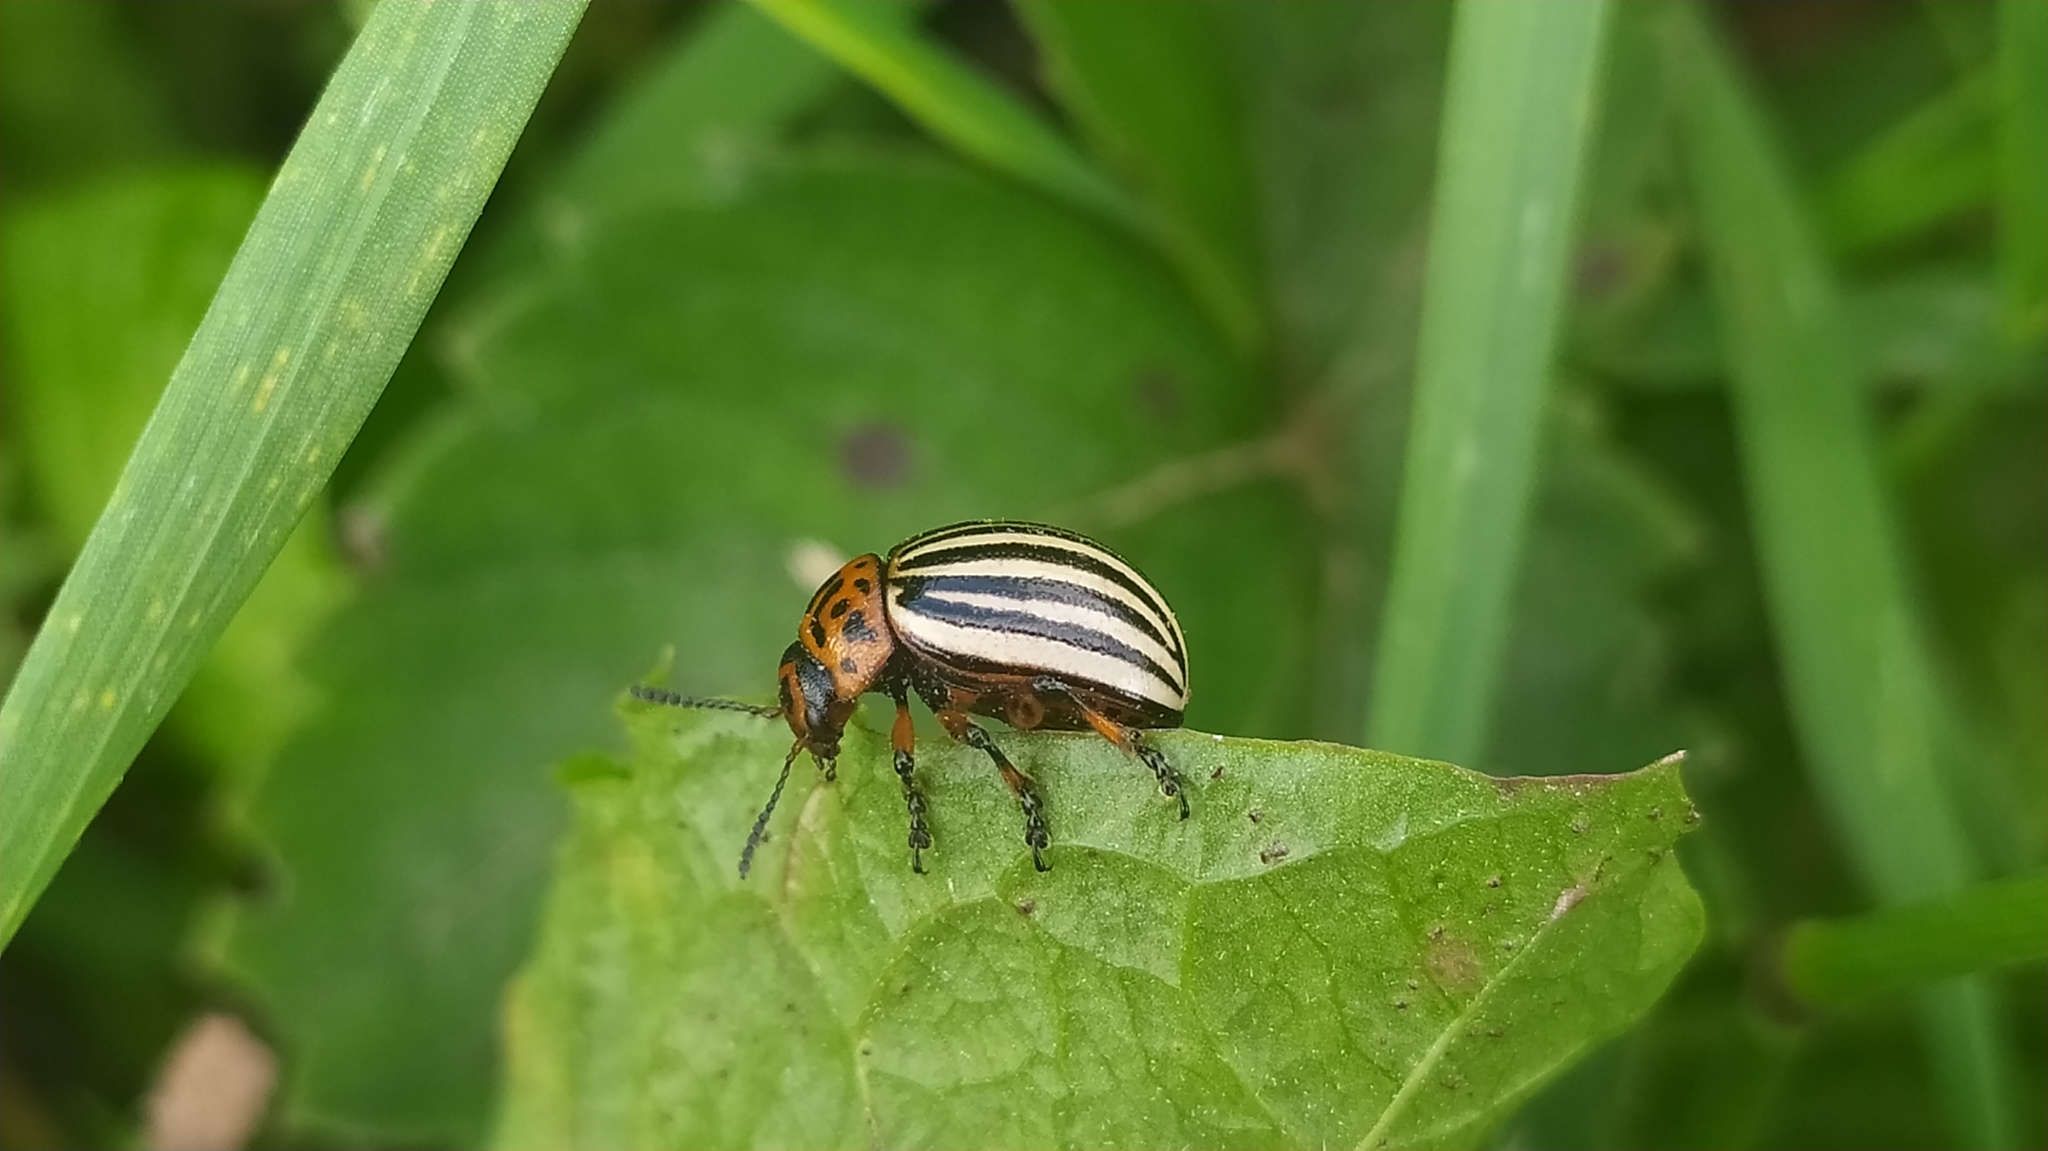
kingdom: Animalia
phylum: Arthropoda
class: Insecta
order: Coleoptera
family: Chrysomelidae
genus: Leptinotarsa
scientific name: Leptinotarsa decemlineata
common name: Colorado potato beetle
